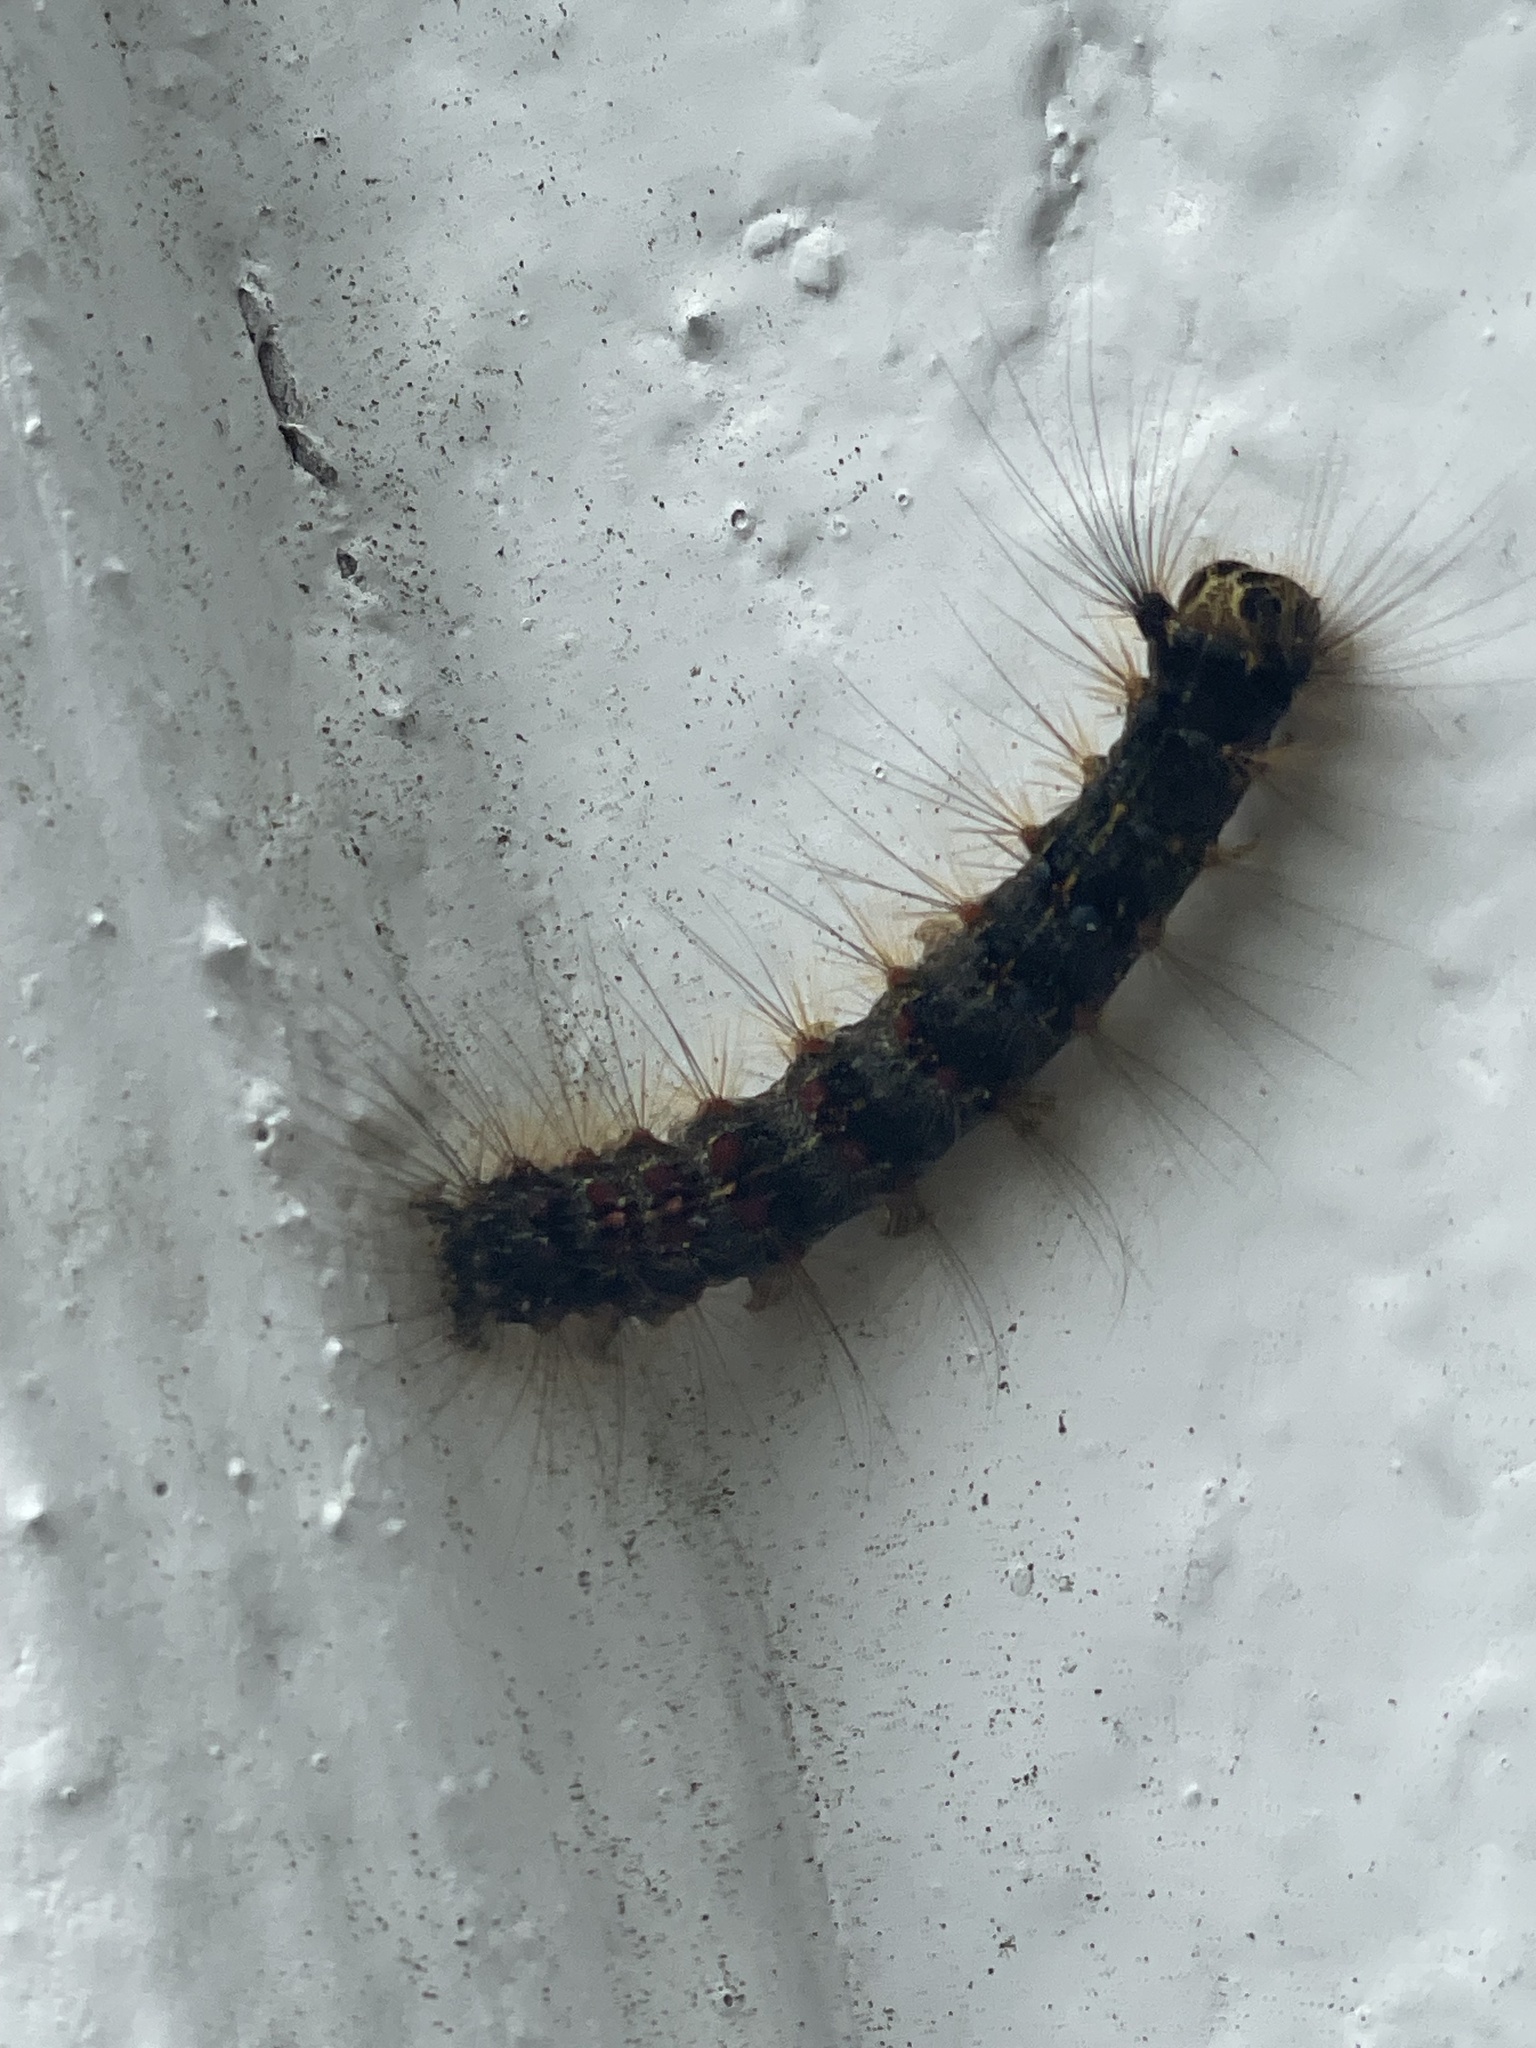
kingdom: Animalia
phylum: Arthropoda
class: Insecta
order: Lepidoptera
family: Erebidae
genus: Lymantria
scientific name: Lymantria dispar
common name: Gypsy moth
